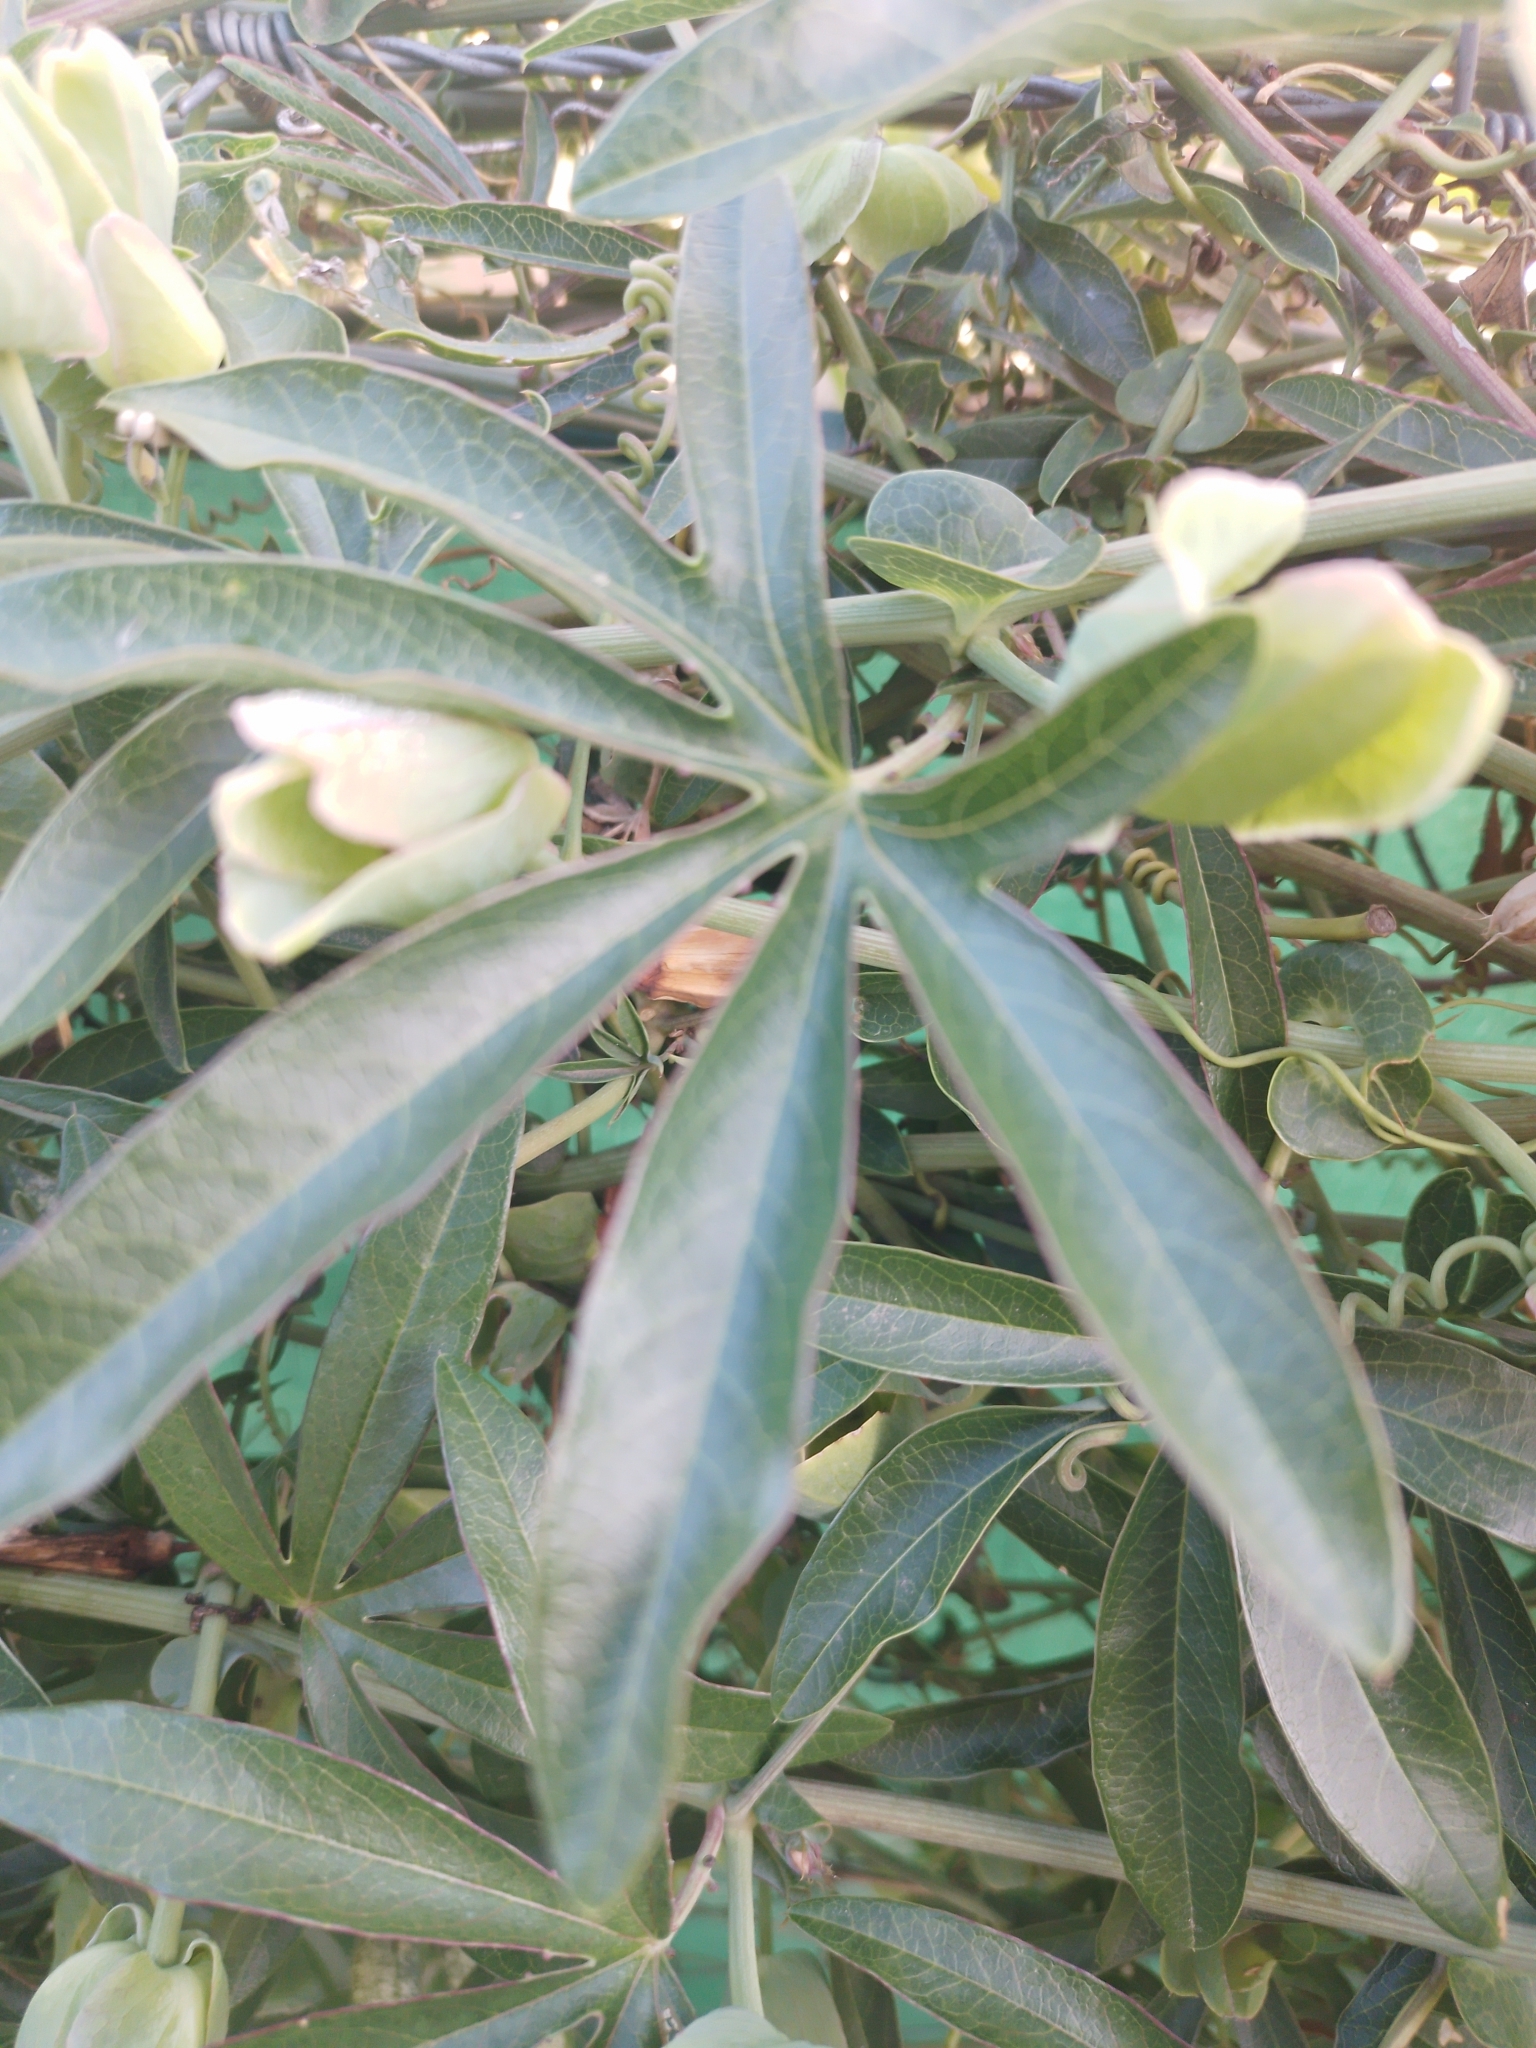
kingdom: Plantae
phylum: Tracheophyta
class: Magnoliopsida
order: Malpighiales
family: Passifloraceae
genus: Passiflora
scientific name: Passiflora caerulea
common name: Blue passionflower
